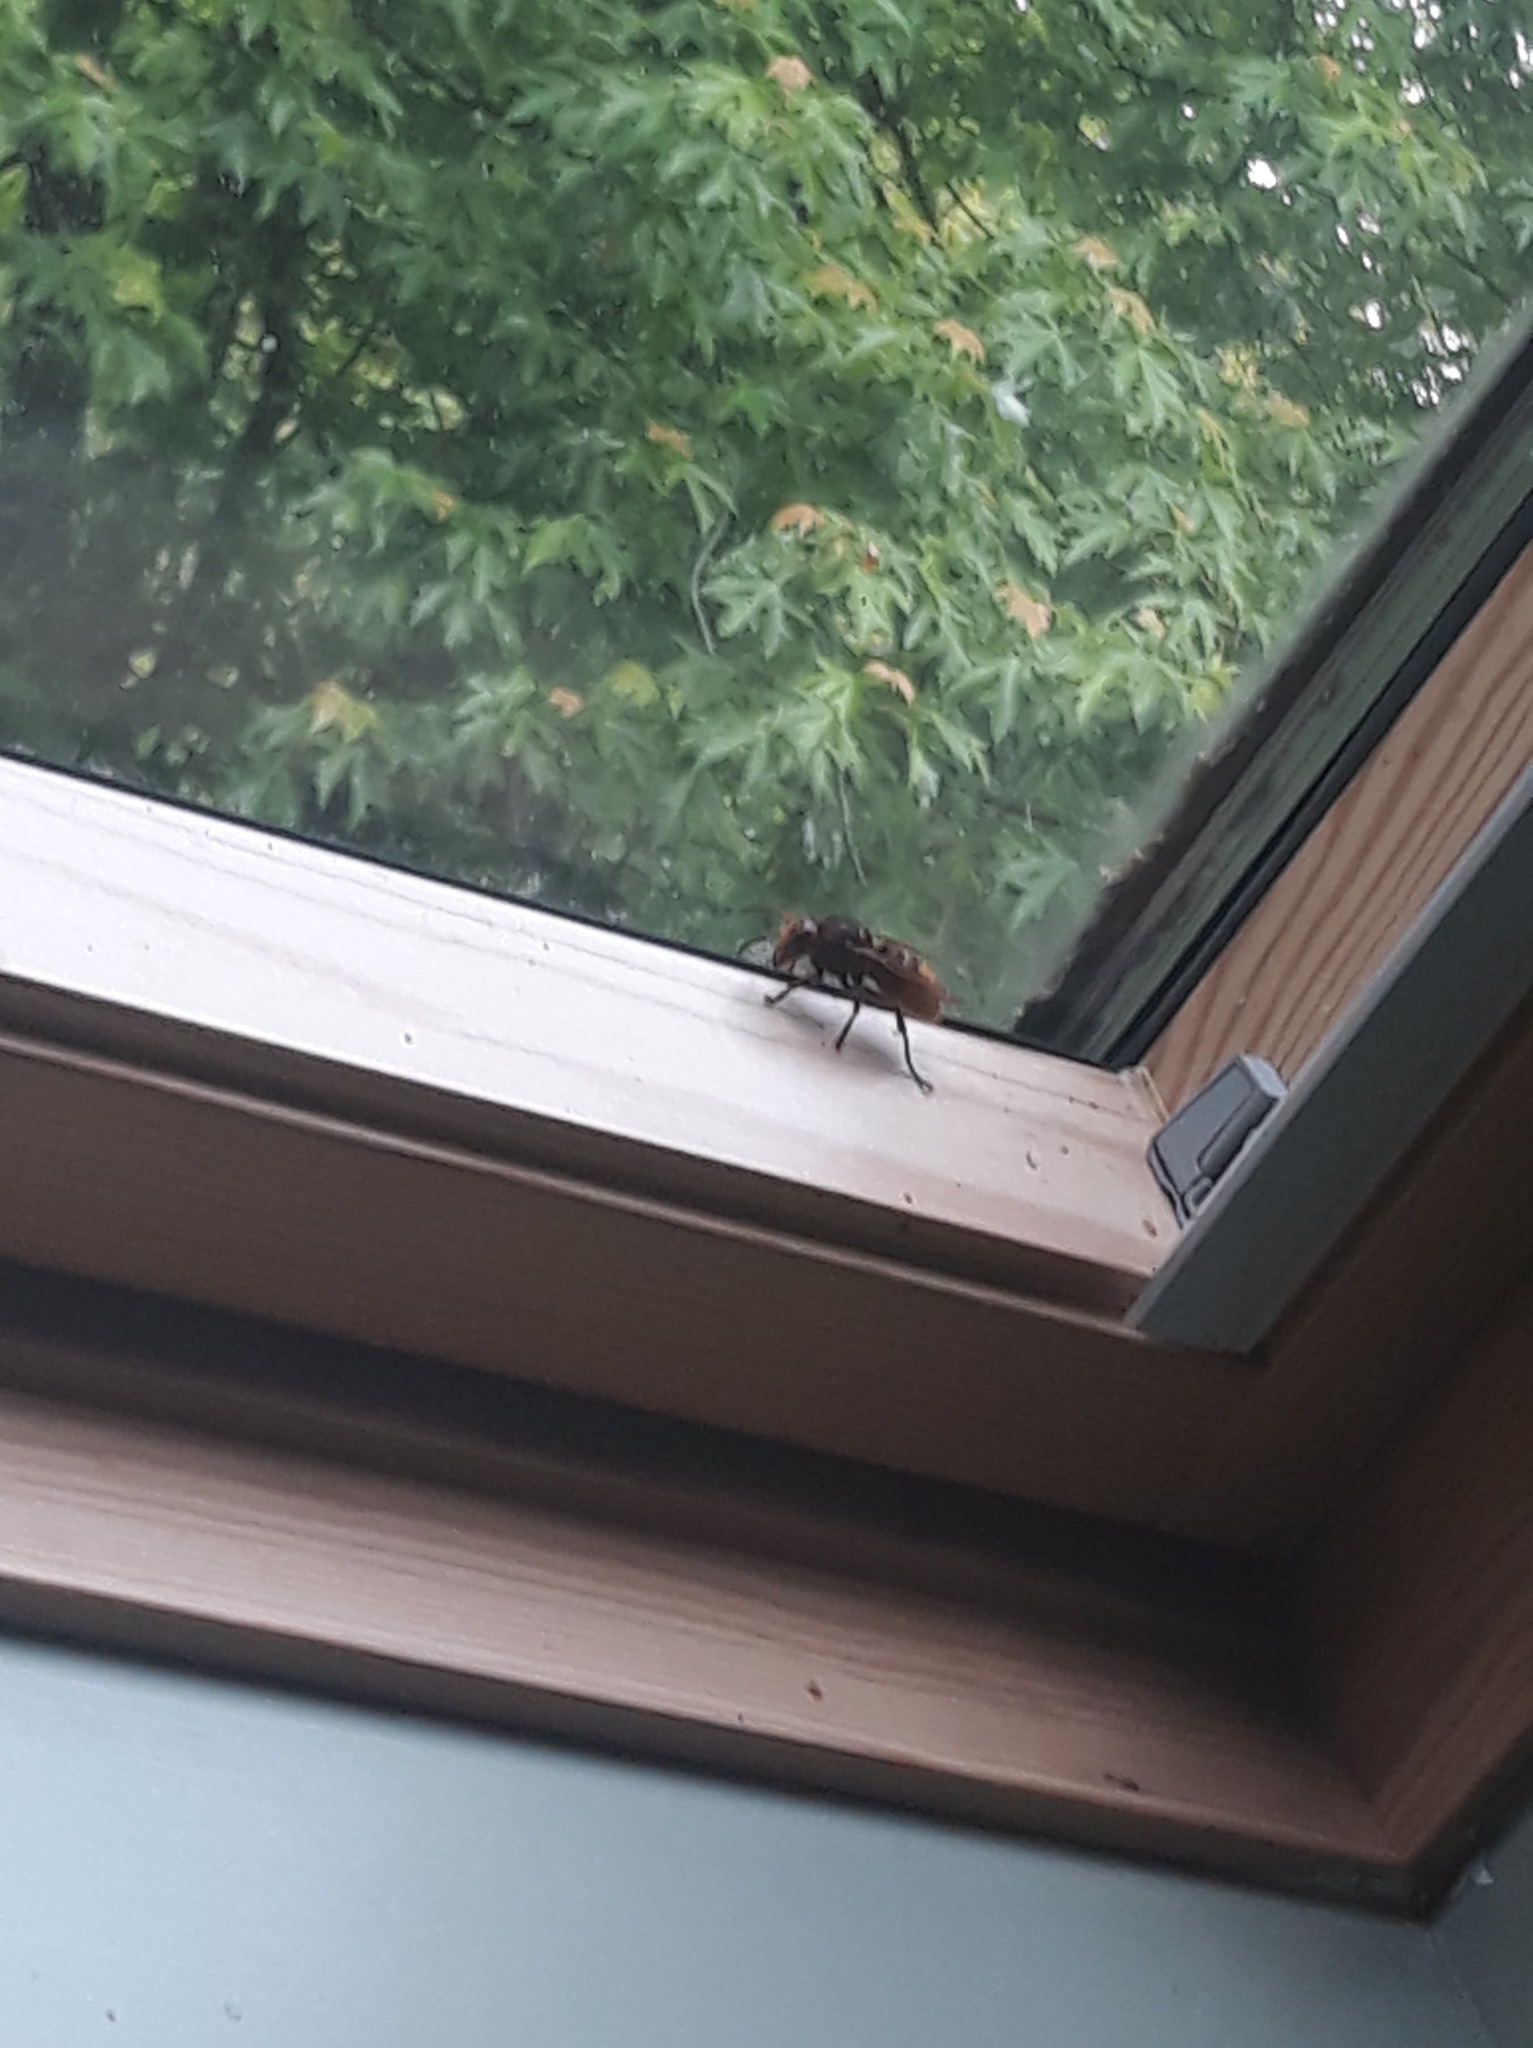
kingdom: Animalia
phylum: Arthropoda
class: Insecta
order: Hymenoptera
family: Vespidae
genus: Vespa
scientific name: Vespa crabro
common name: Hornet
